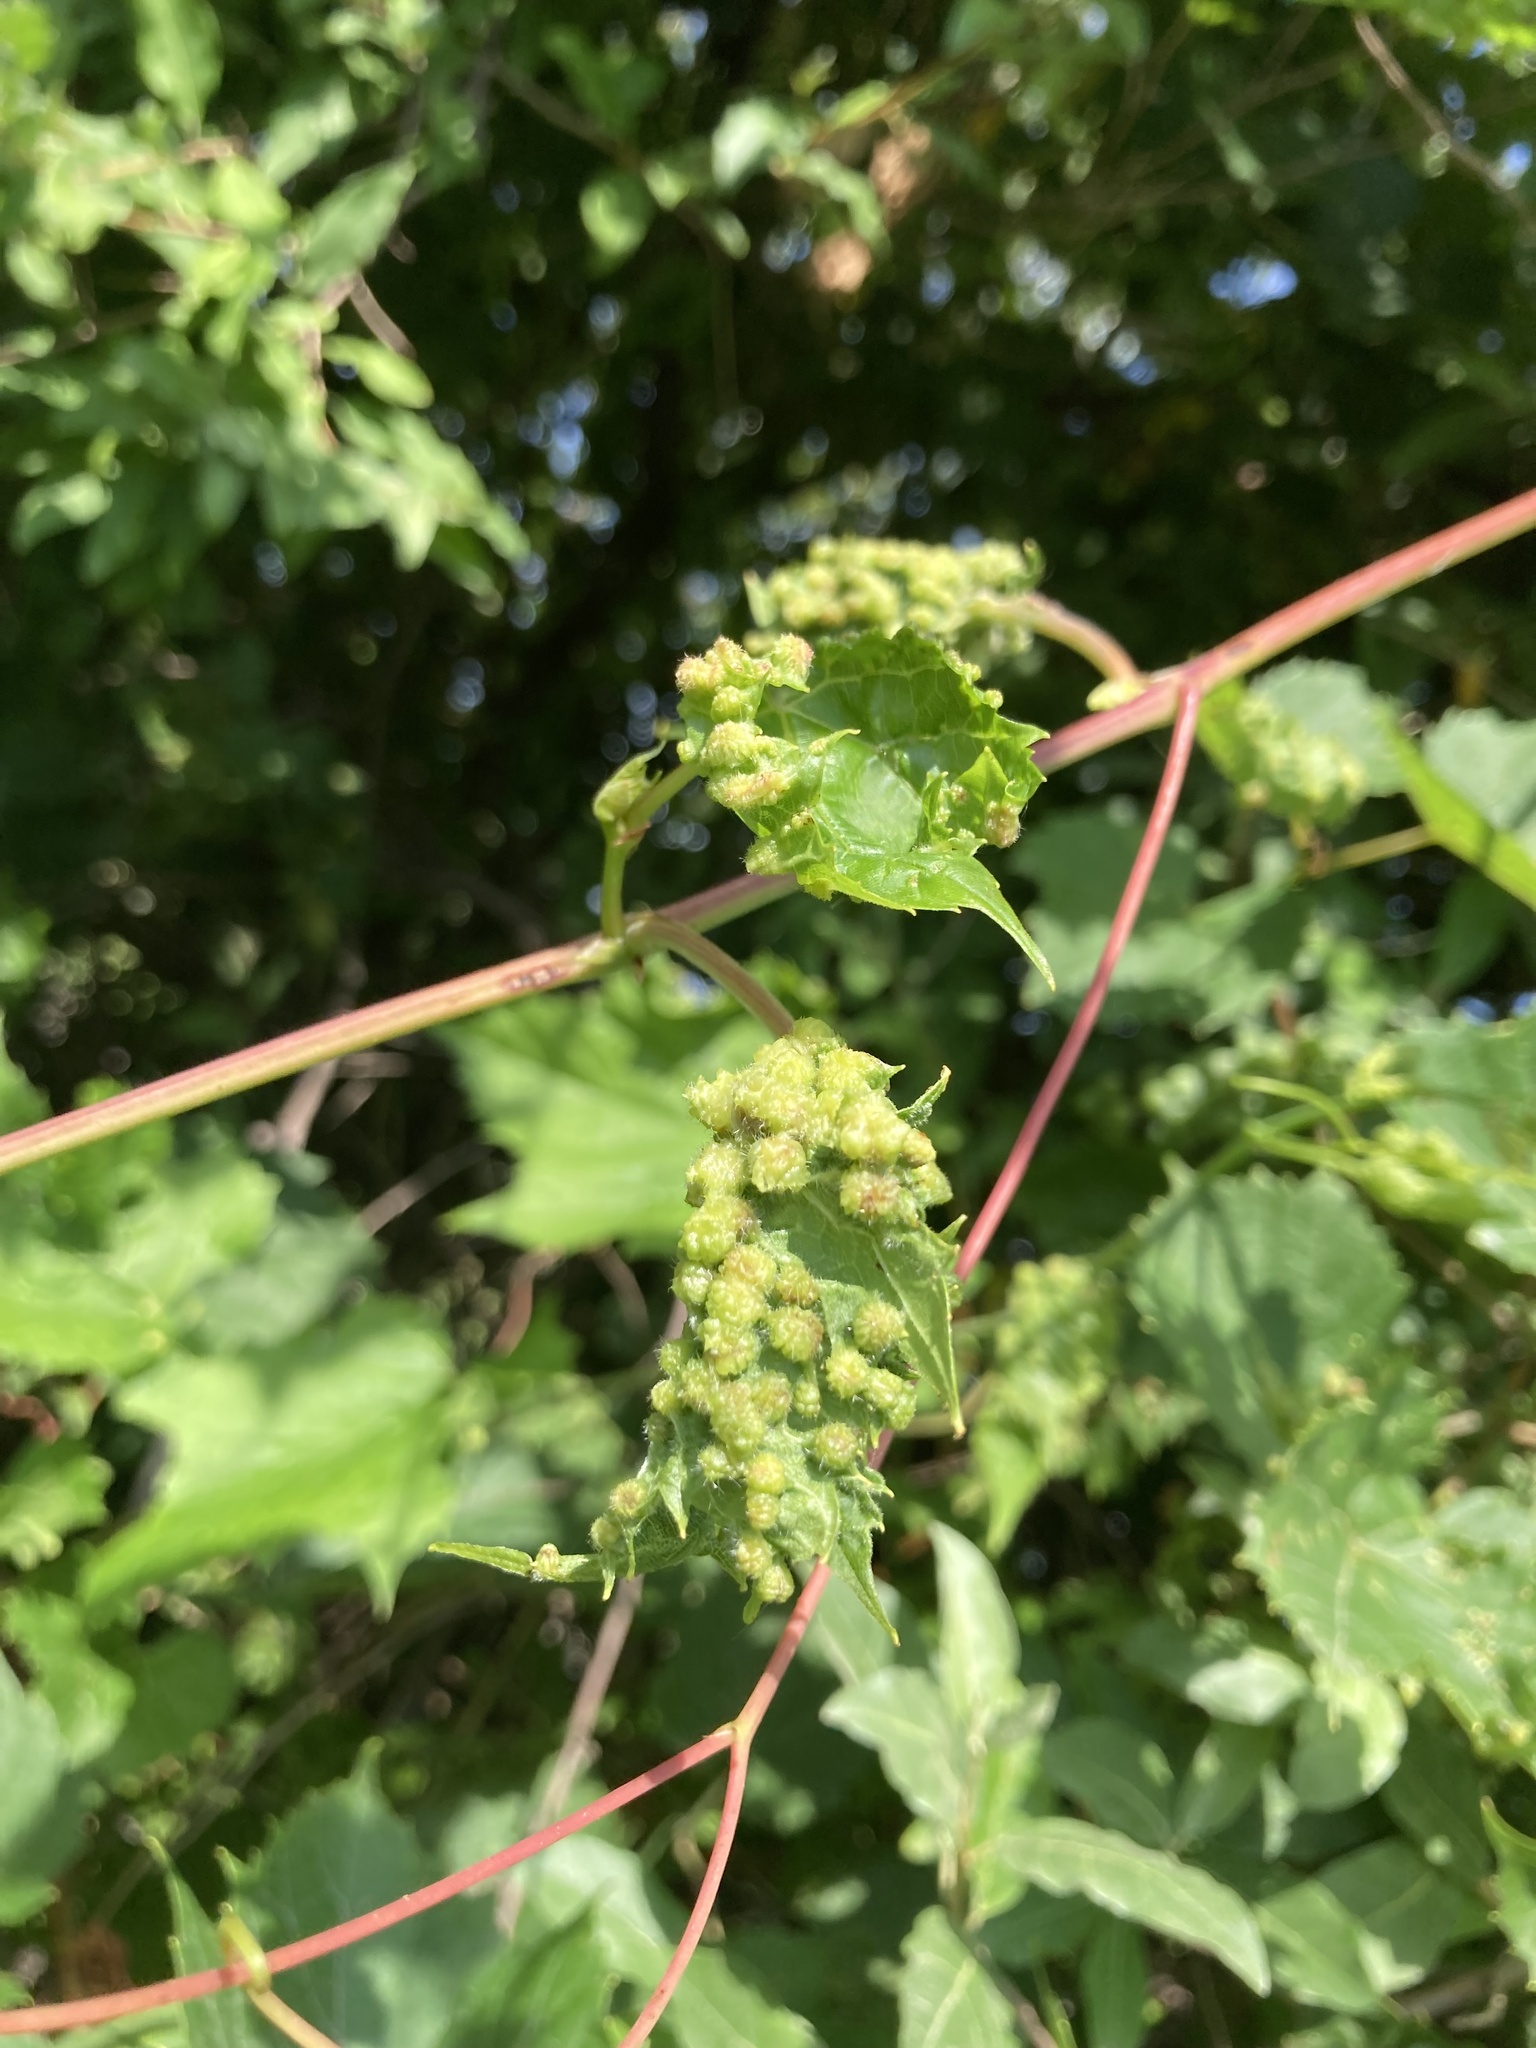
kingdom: Animalia
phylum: Arthropoda
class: Insecta
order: Hemiptera
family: Phylloxeridae
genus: Daktulosphaira
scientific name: Daktulosphaira vitifoliae
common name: Grape phylloxera
